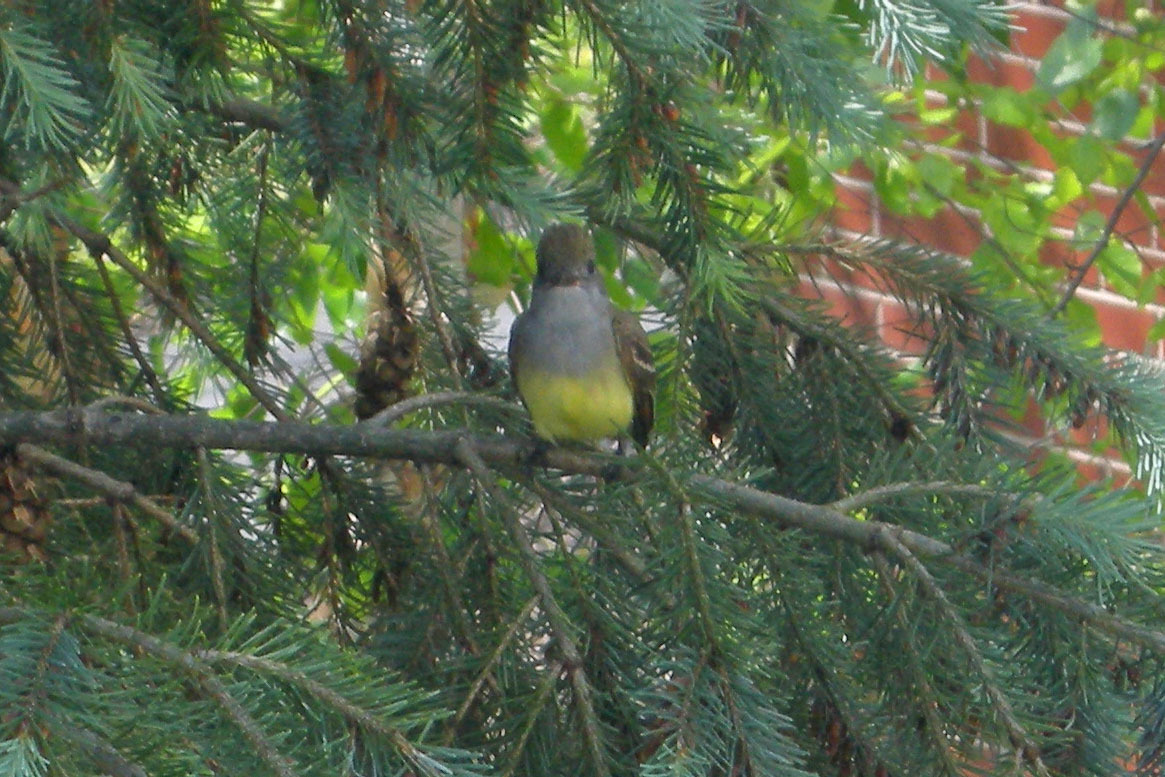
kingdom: Animalia
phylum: Chordata
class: Aves
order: Passeriformes
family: Tyrannidae
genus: Myiarchus
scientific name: Myiarchus crinitus
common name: Great crested flycatcher
